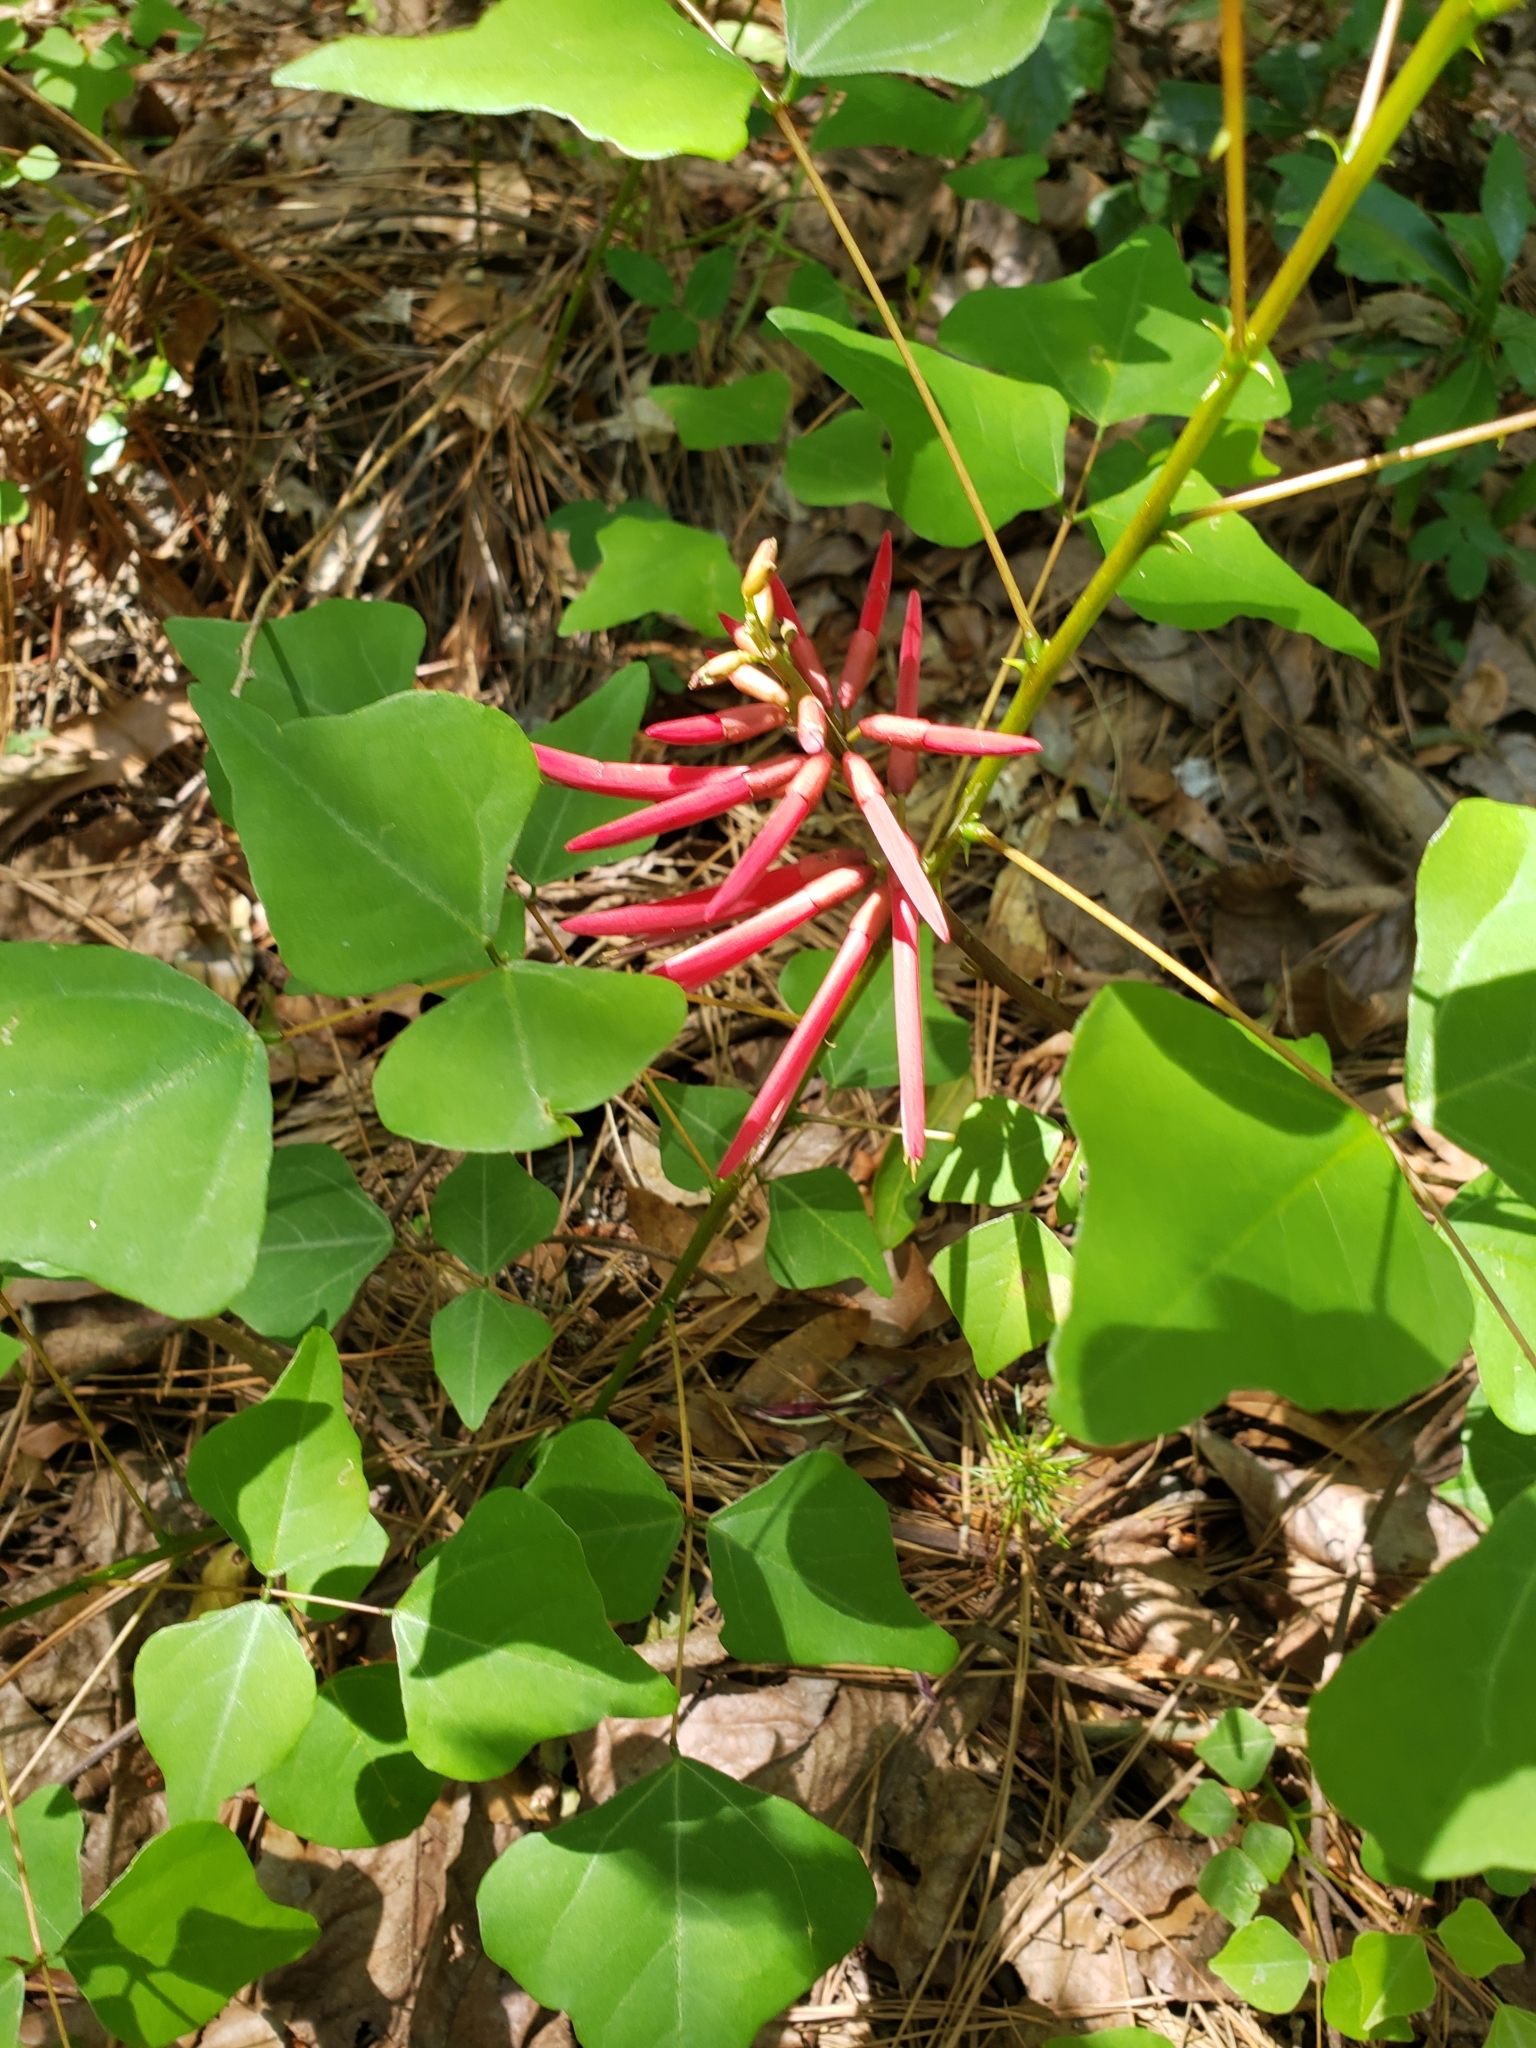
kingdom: Plantae
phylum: Tracheophyta
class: Magnoliopsida
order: Fabales
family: Fabaceae
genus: Erythrina
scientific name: Erythrina herbacea
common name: Coral-bean
